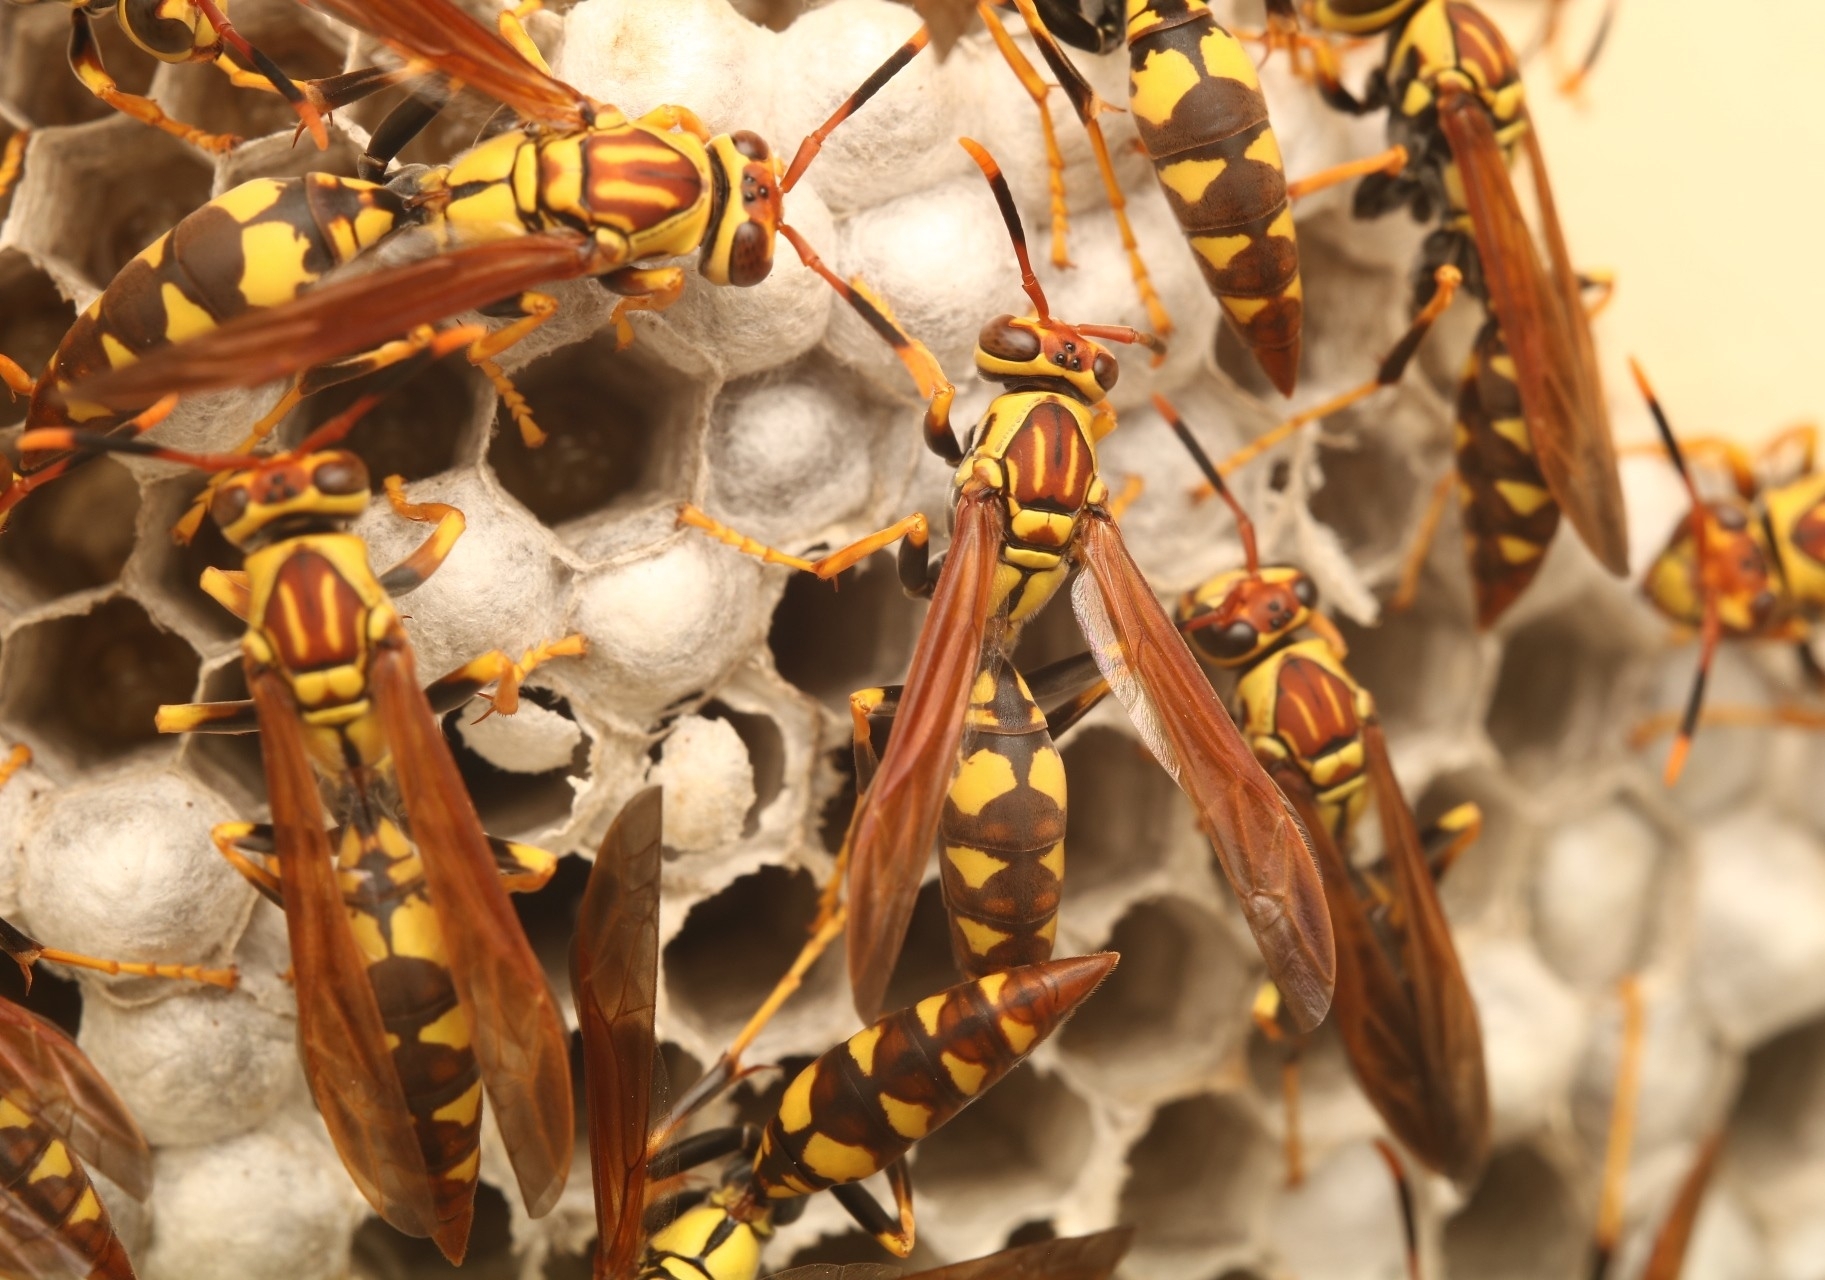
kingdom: Animalia
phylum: Arthropoda
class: Insecta
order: Hymenoptera
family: Eumenidae
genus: Polistes
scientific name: Polistes myersi
